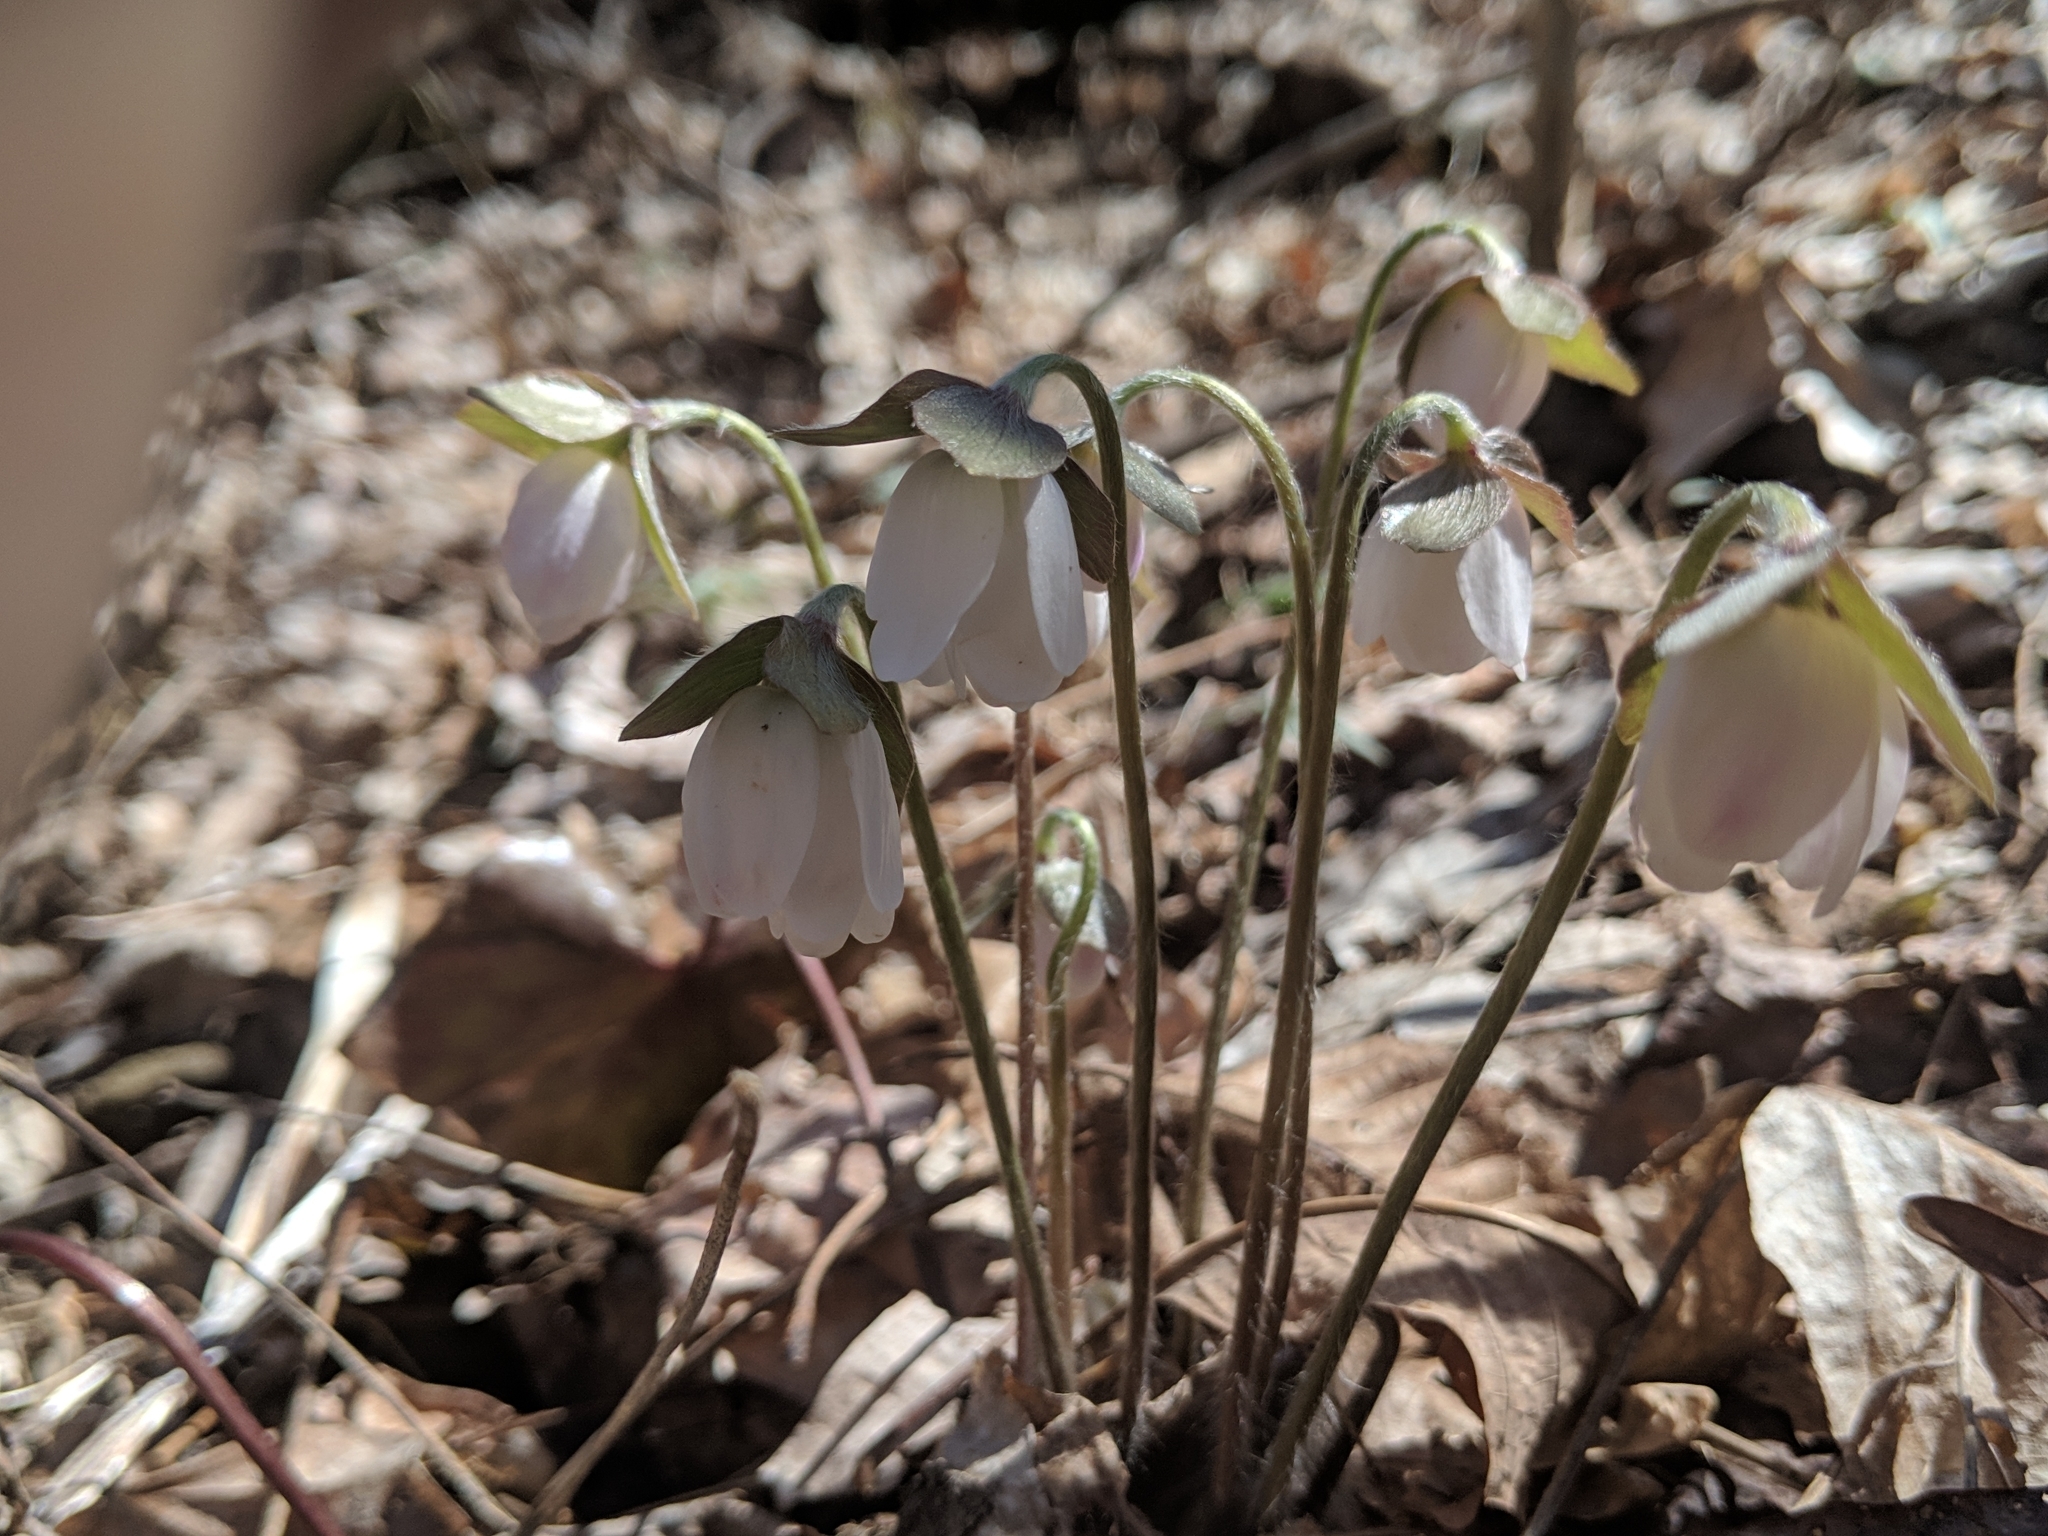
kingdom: Plantae
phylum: Tracheophyta
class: Magnoliopsida
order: Ranunculales
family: Ranunculaceae
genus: Hepatica
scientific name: Hepatica acutiloba
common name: Sharp-lobed hepatica
